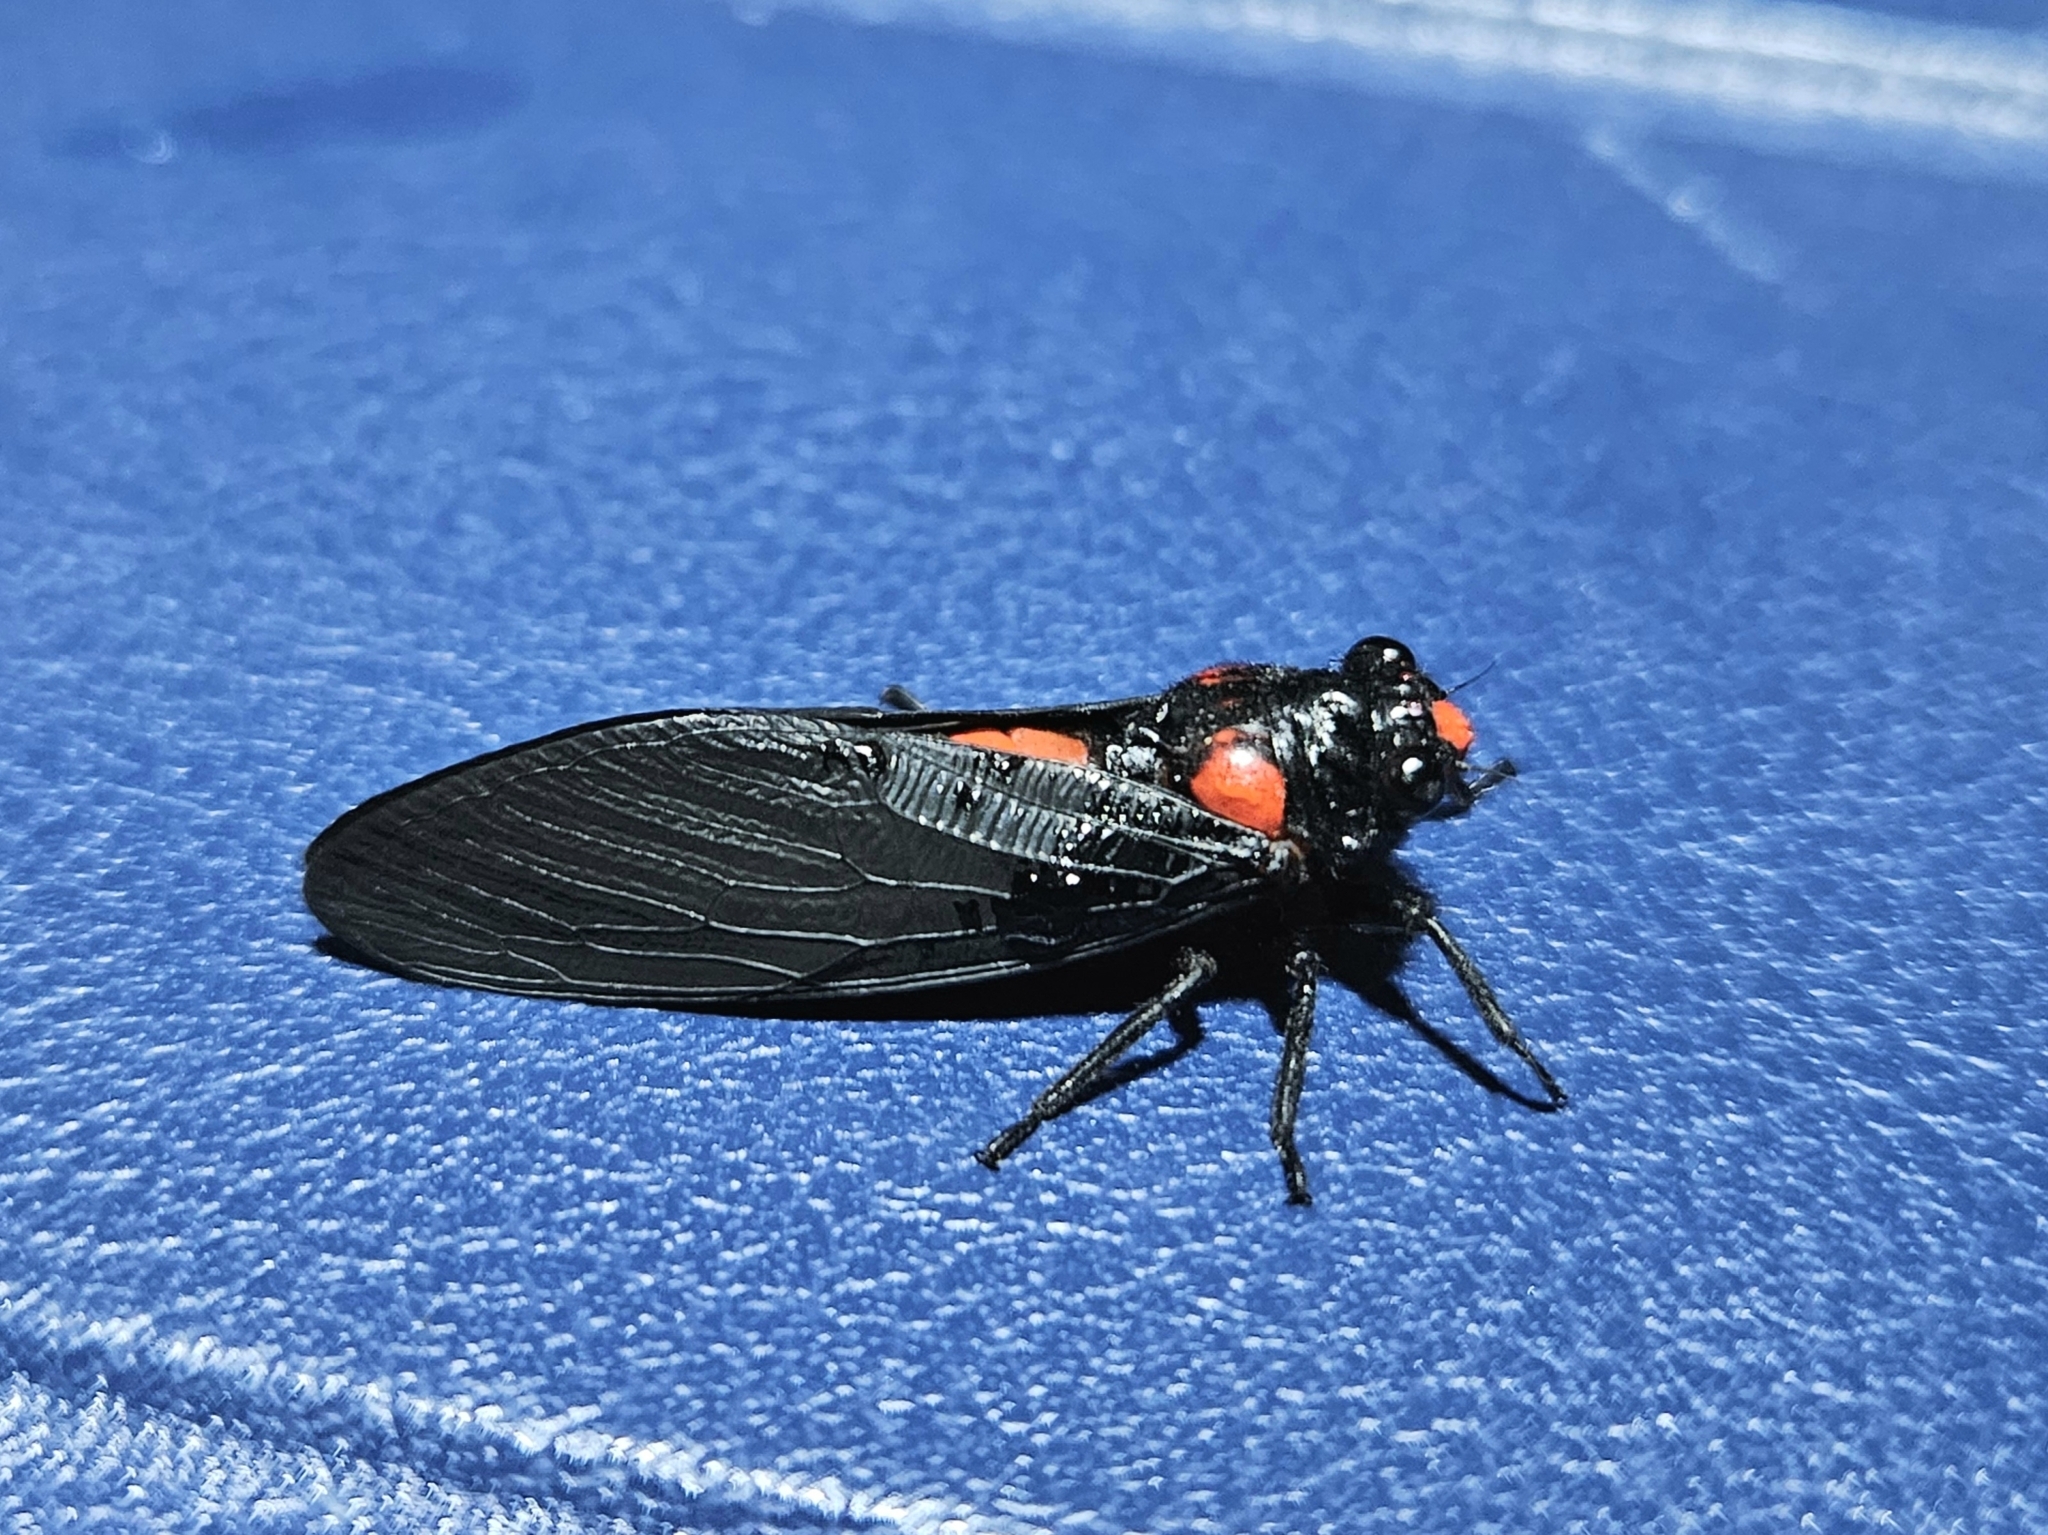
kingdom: Animalia
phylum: Arthropoda
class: Insecta
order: Hemiptera
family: Cicadidae
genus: Huechys
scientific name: Huechys sanguinea
